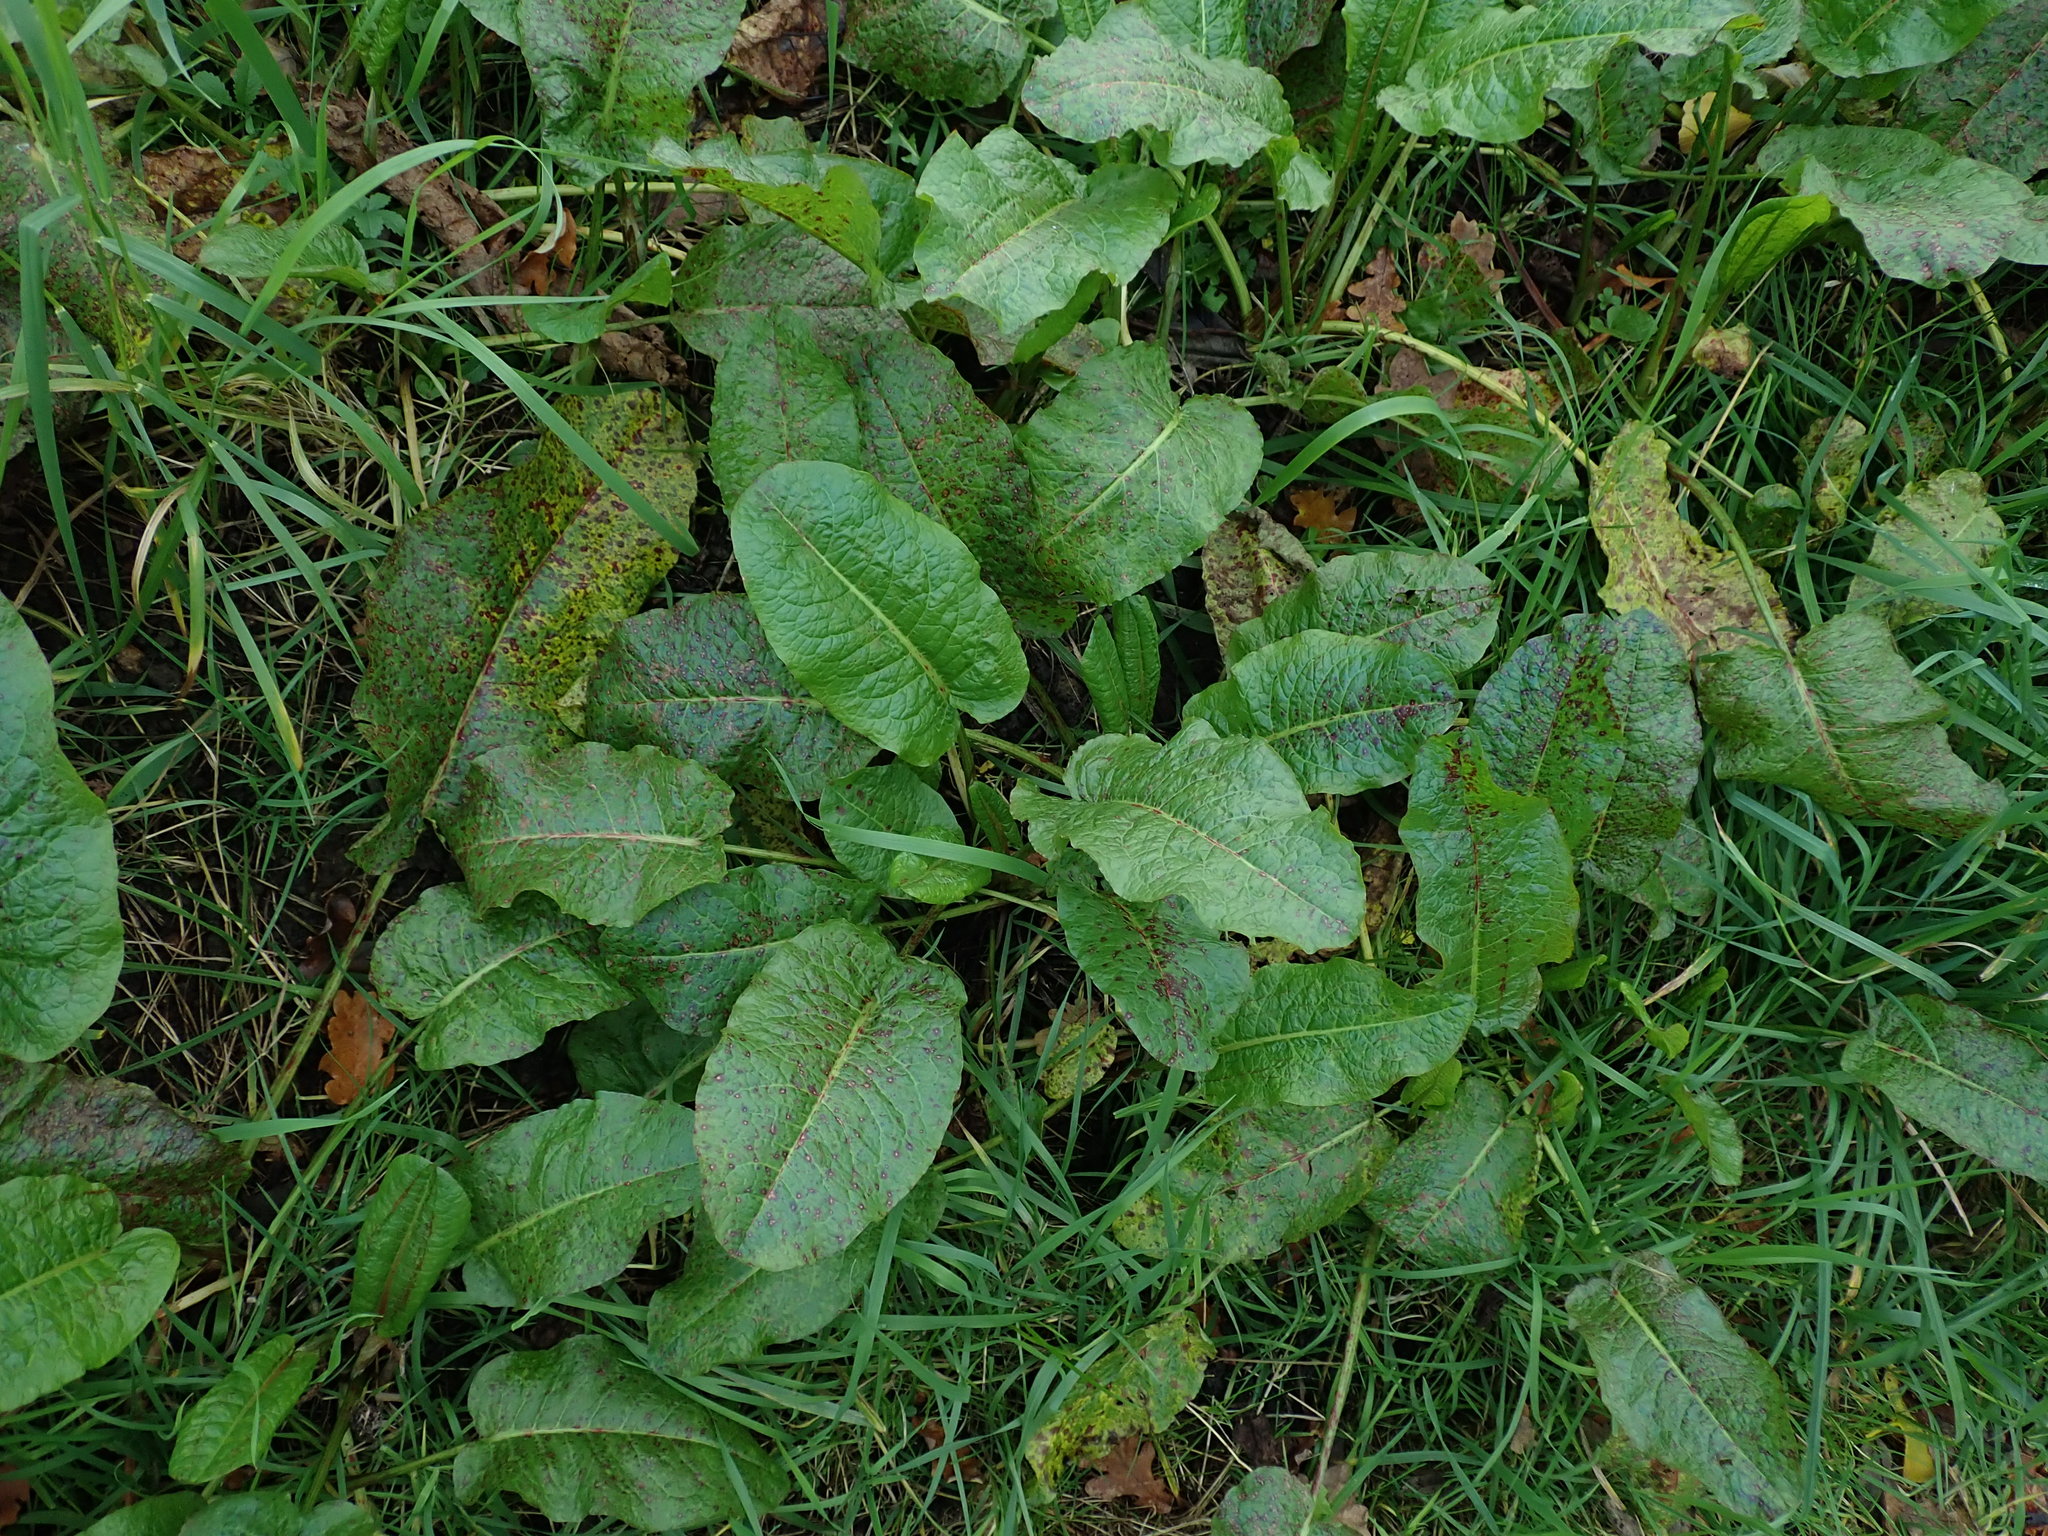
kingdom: Plantae
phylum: Tracheophyta
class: Magnoliopsida
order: Caryophyllales
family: Polygonaceae
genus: Rumex
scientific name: Rumex obtusifolius
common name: Bitter dock
